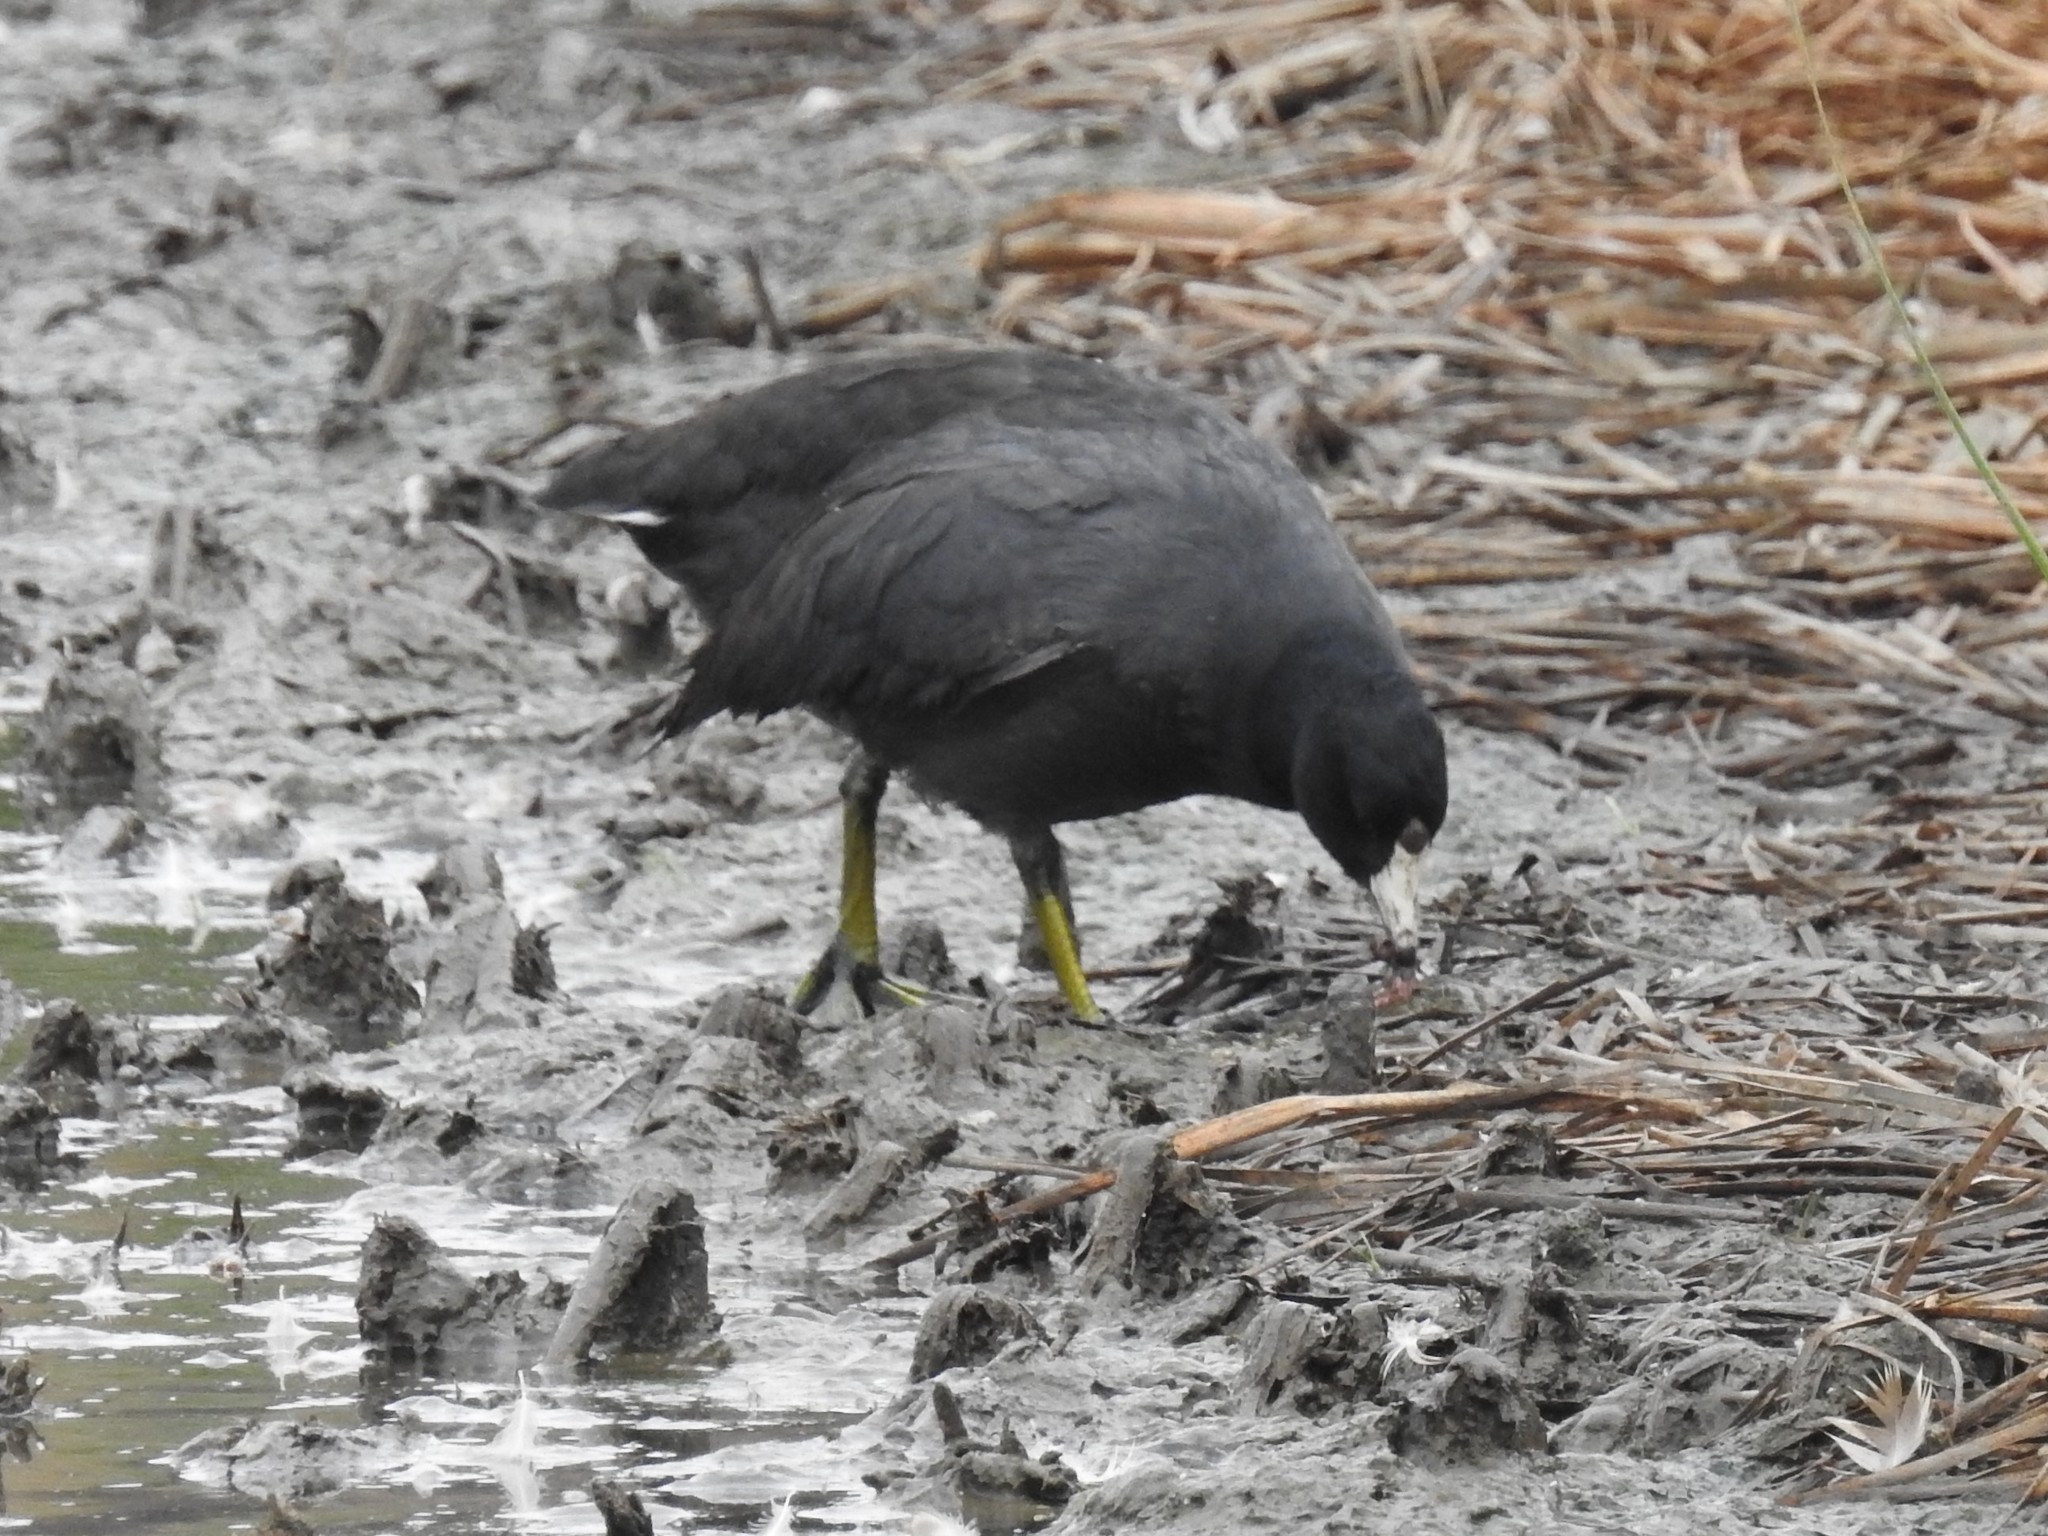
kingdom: Animalia
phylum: Chordata
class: Aves
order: Gruiformes
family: Rallidae
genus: Fulica
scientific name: Fulica americana
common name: American coot
